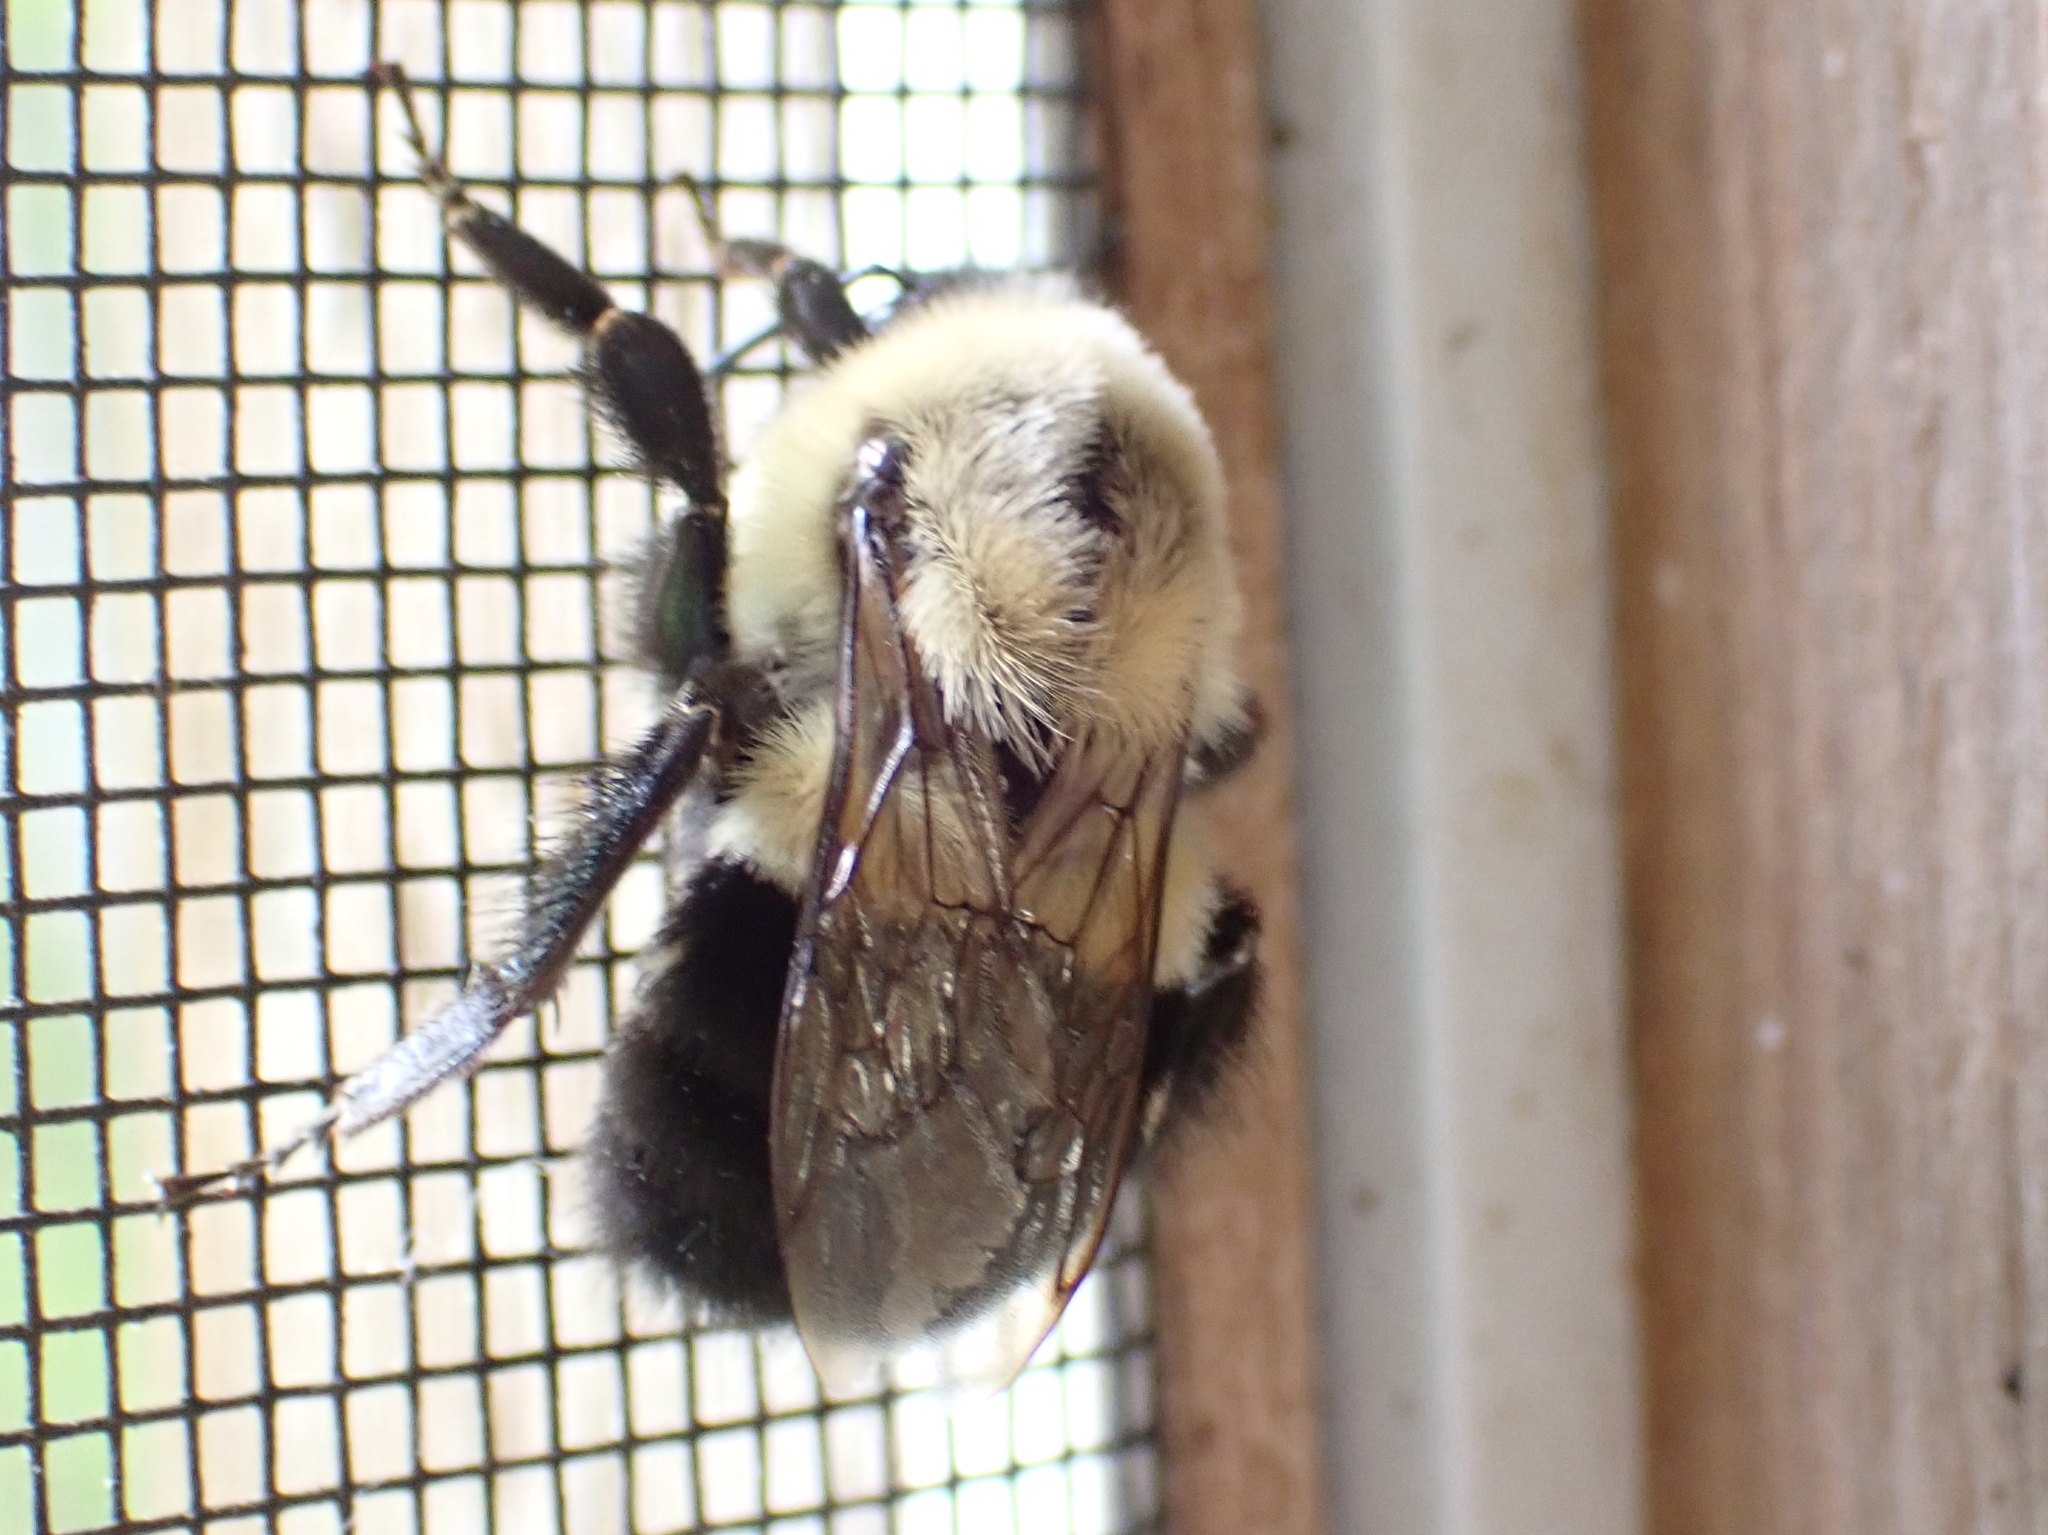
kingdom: Animalia
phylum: Arthropoda
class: Insecta
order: Hymenoptera
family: Apidae
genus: Bombus
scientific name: Bombus impatiens
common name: Common eastern bumble bee
